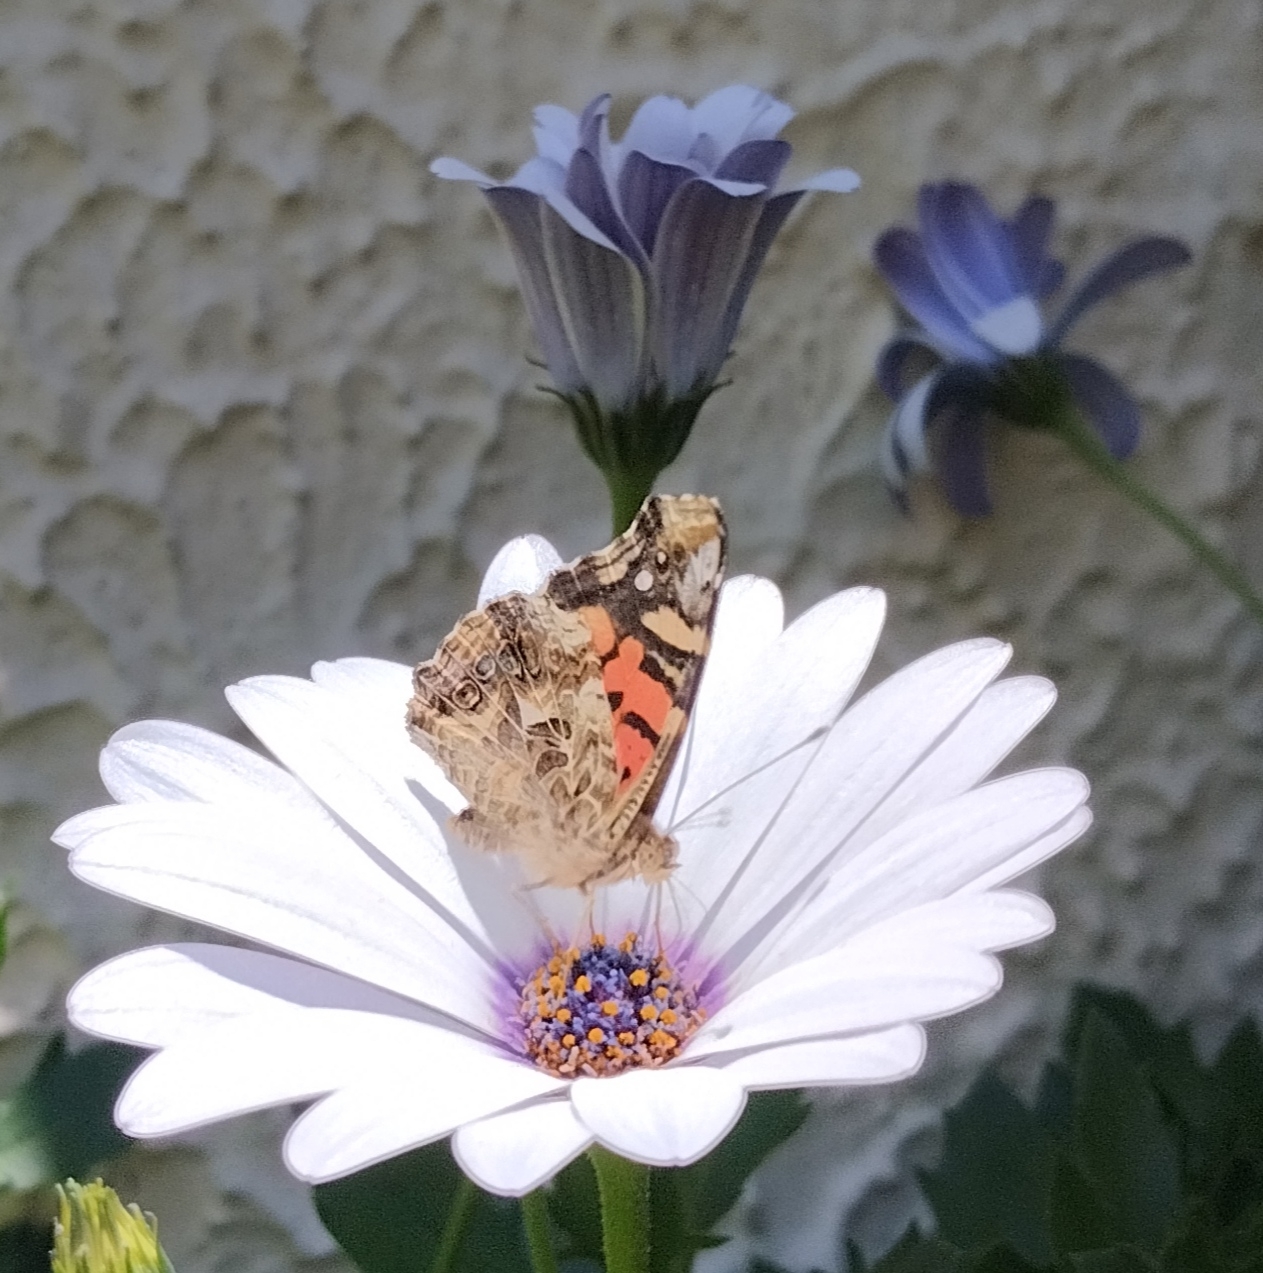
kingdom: Animalia
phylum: Arthropoda
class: Insecta
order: Lepidoptera
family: Nymphalidae
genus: Vanessa
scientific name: Vanessa carye
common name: Subtropical lady
